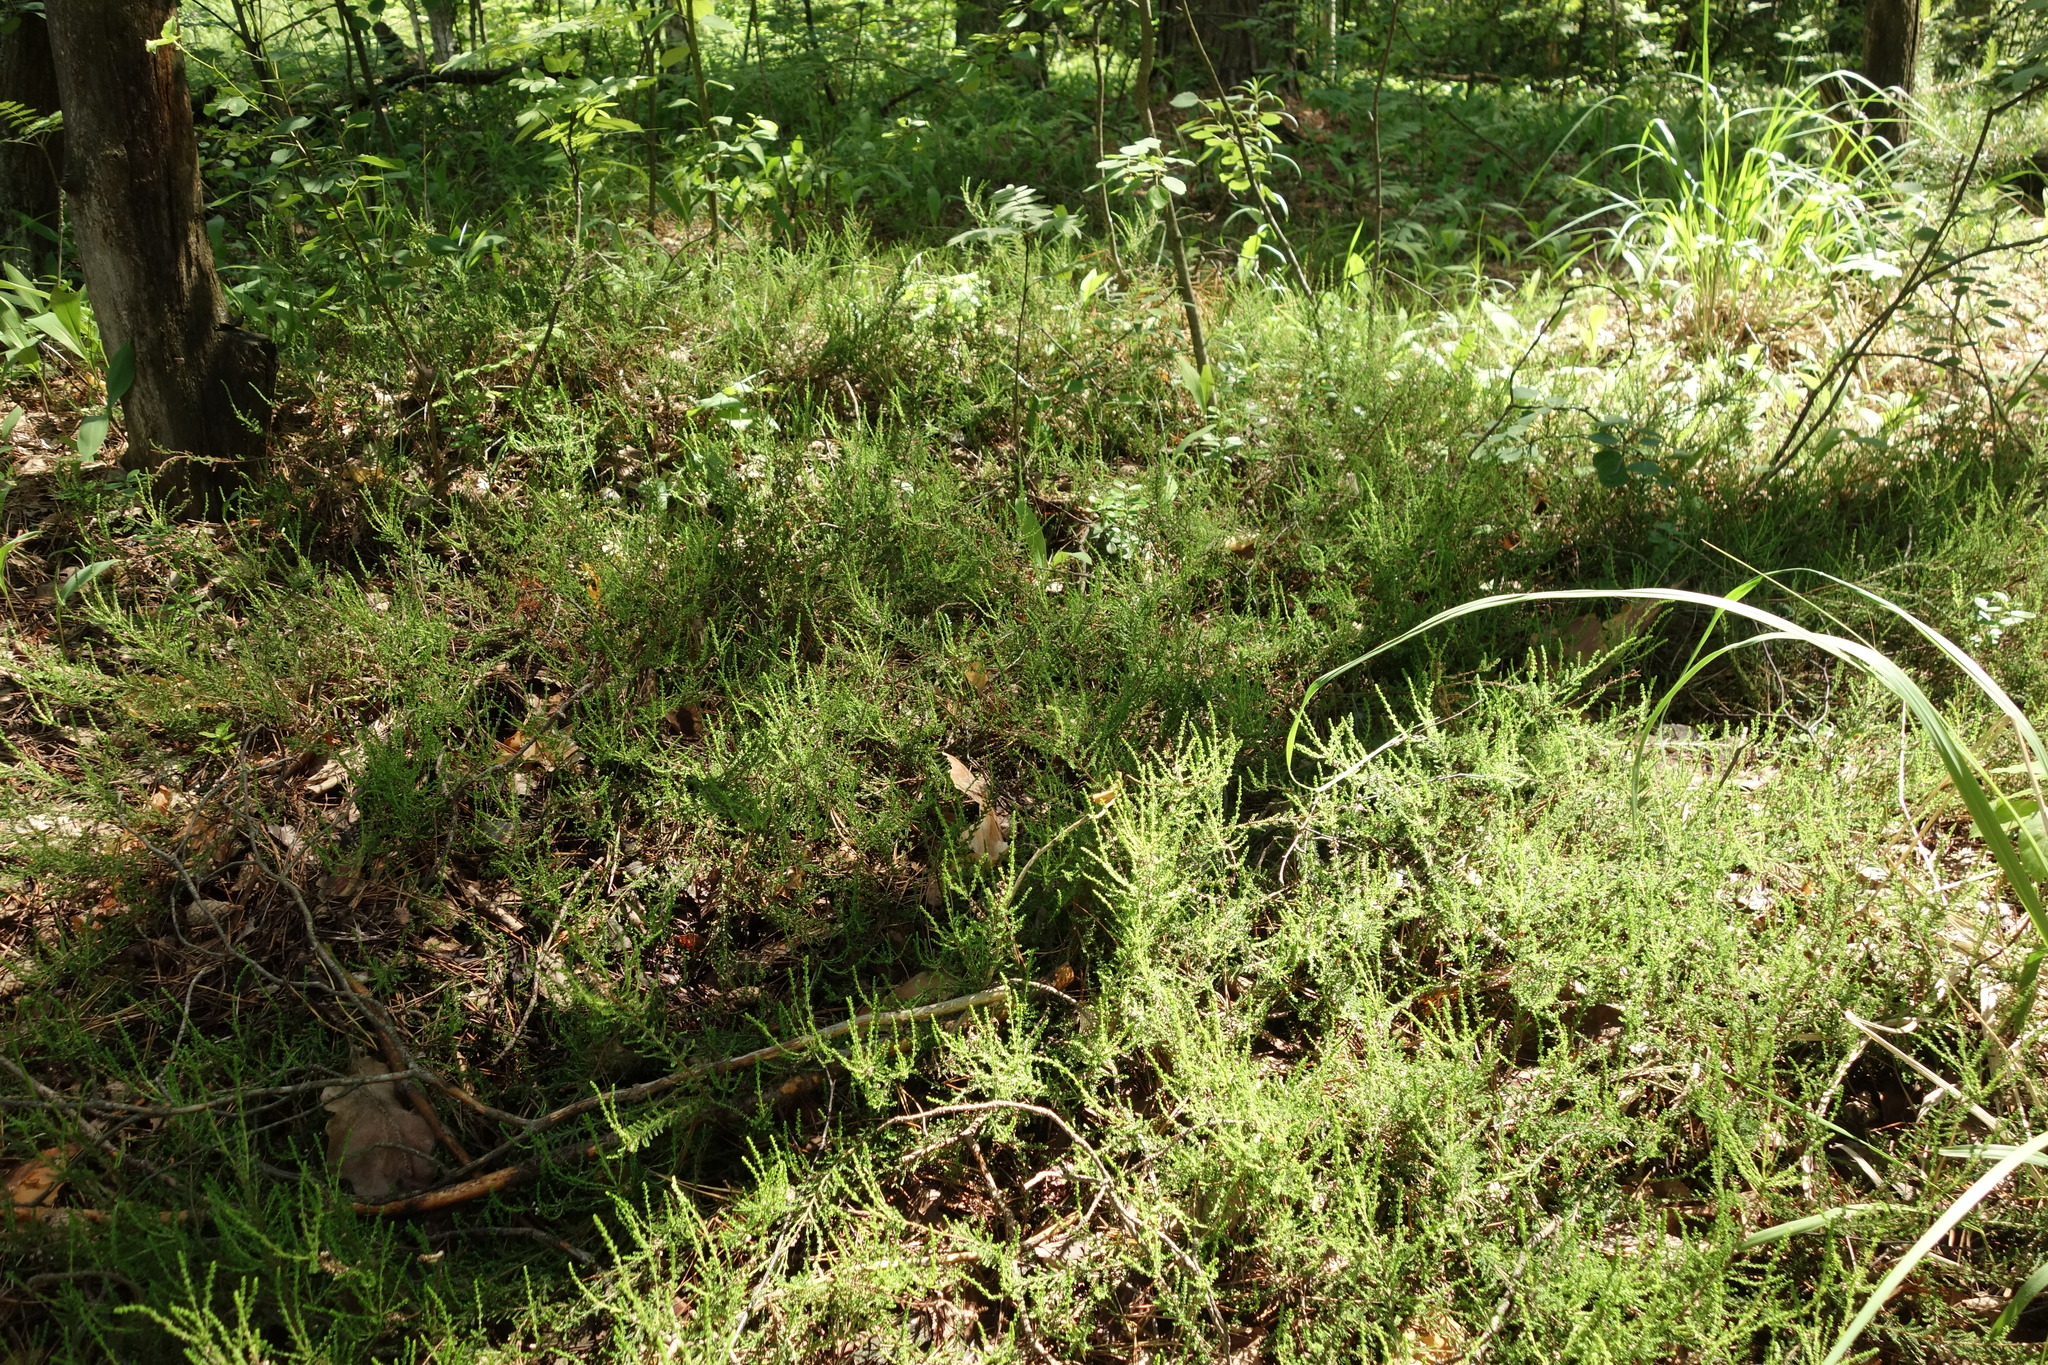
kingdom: Plantae
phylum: Tracheophyta
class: Magnoliopsida
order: Ericales
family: Ericaceae
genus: Calluna
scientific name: Calluna vulgaris
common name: Heather
